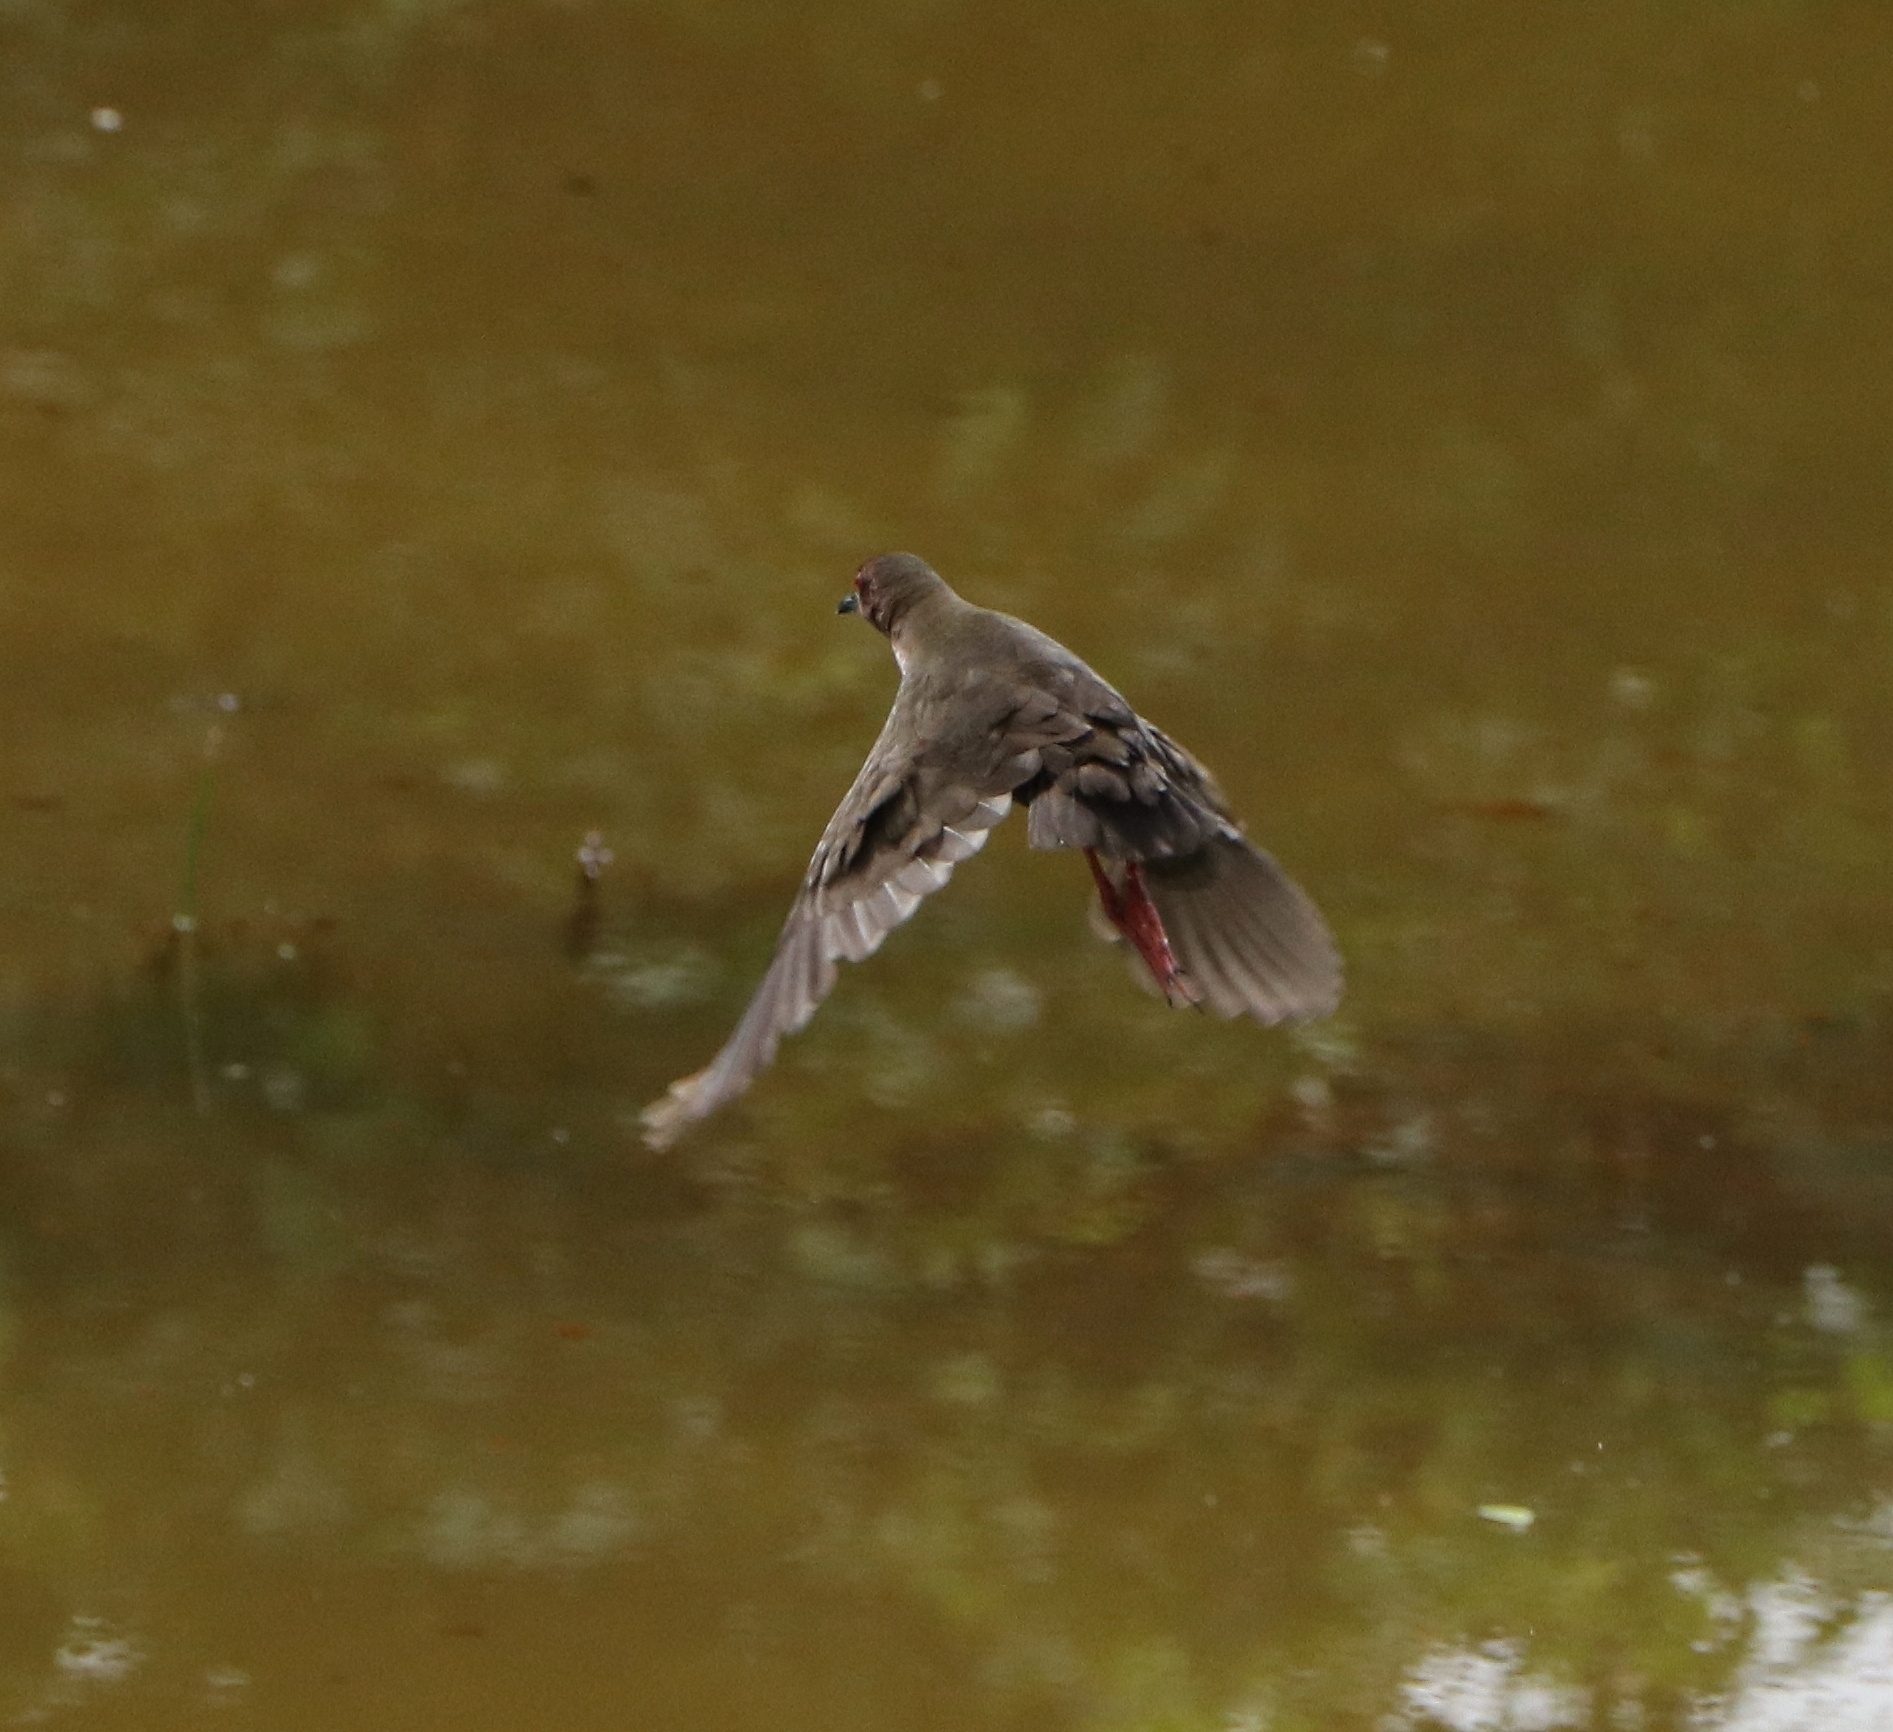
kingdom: Animalia
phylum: Chordata
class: Aves
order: Gruiformes
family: Rallidae
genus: Porzana
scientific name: Porzana fusca
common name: Ruddy-breasted crake
